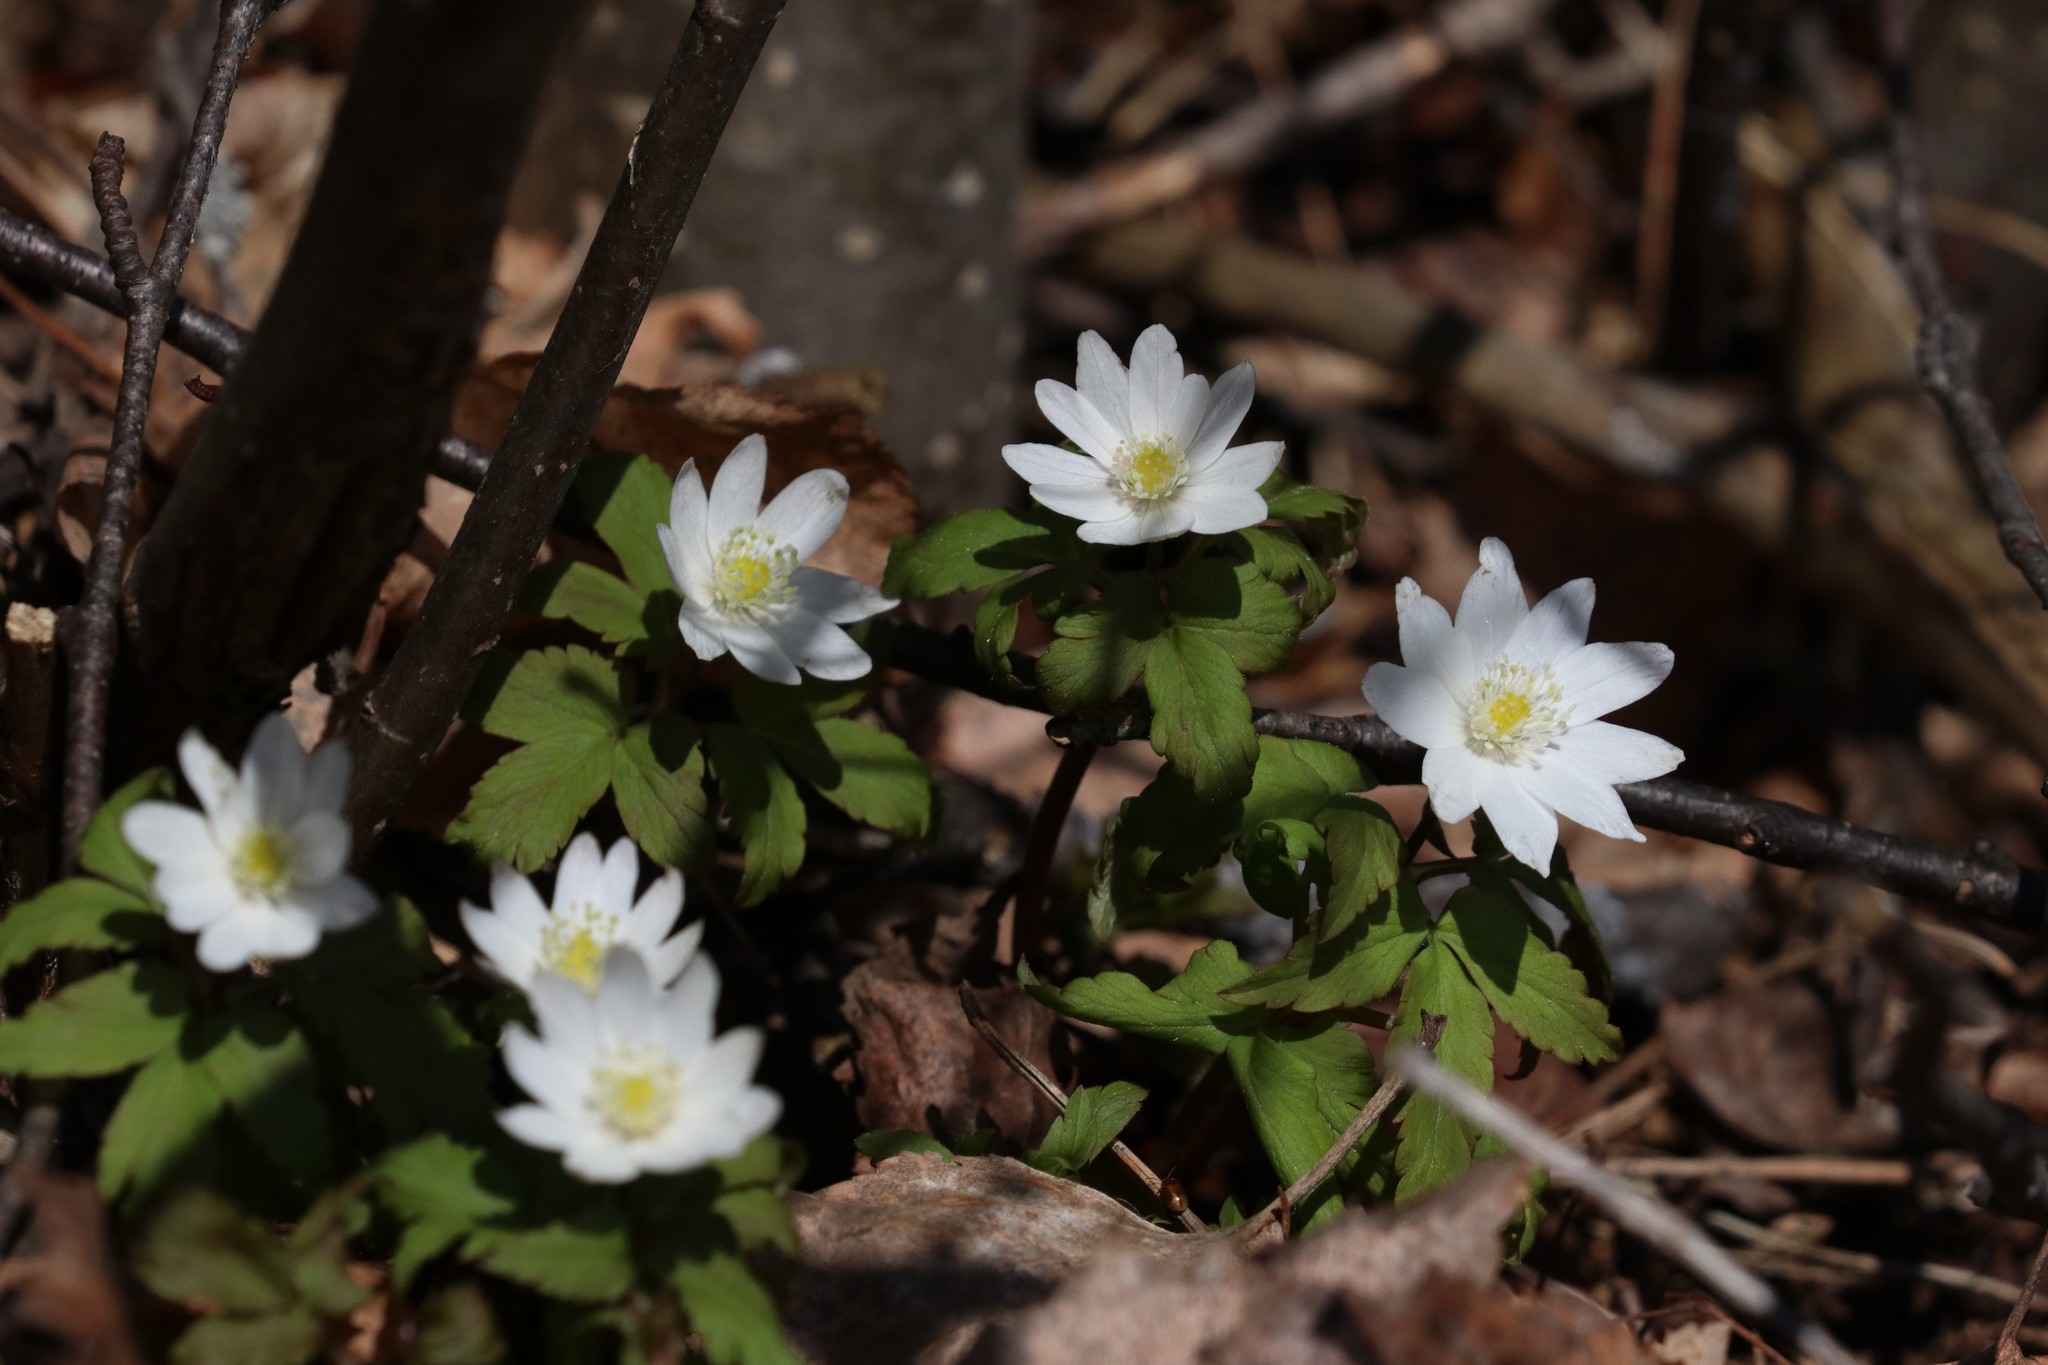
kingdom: Plantae
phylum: Tracheophyta
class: Magnoliopsida
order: Ranunculales
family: Ranunculaceae
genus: Anemone
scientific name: Anemone altaica
